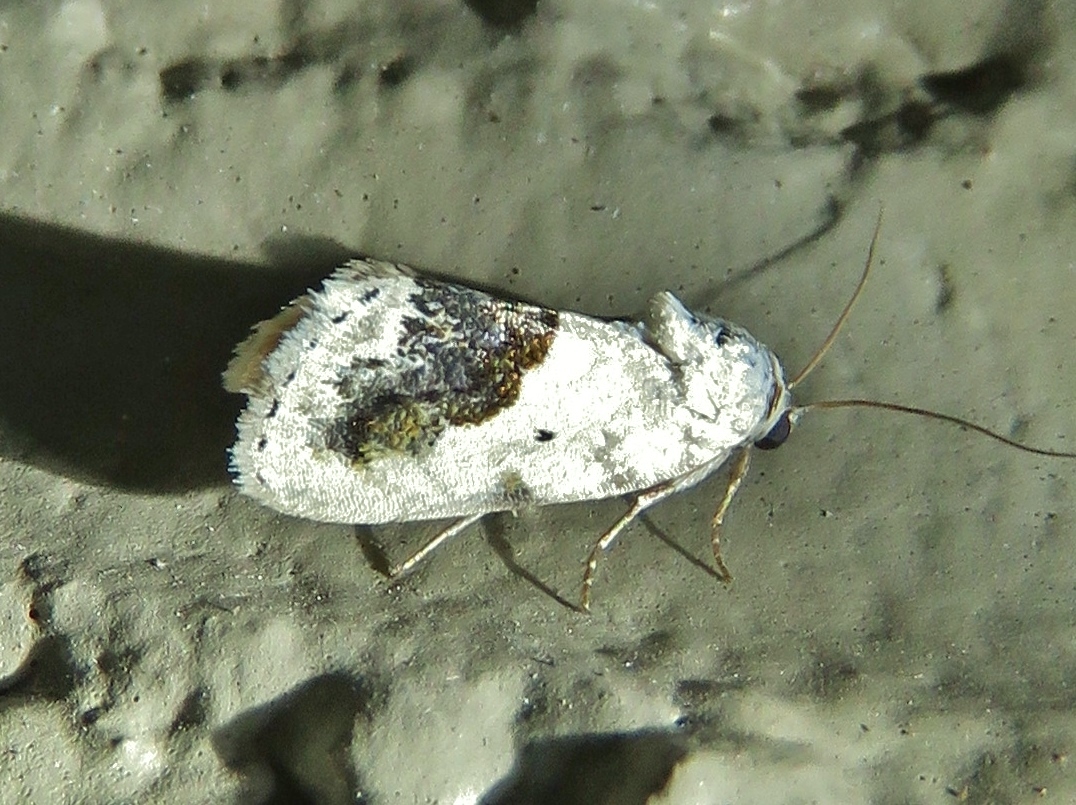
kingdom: Animalia
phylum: Arthropoda
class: Insecta
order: Lepidoptera
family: Noctuidae
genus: Acontia
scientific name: Acontia erastrioides
